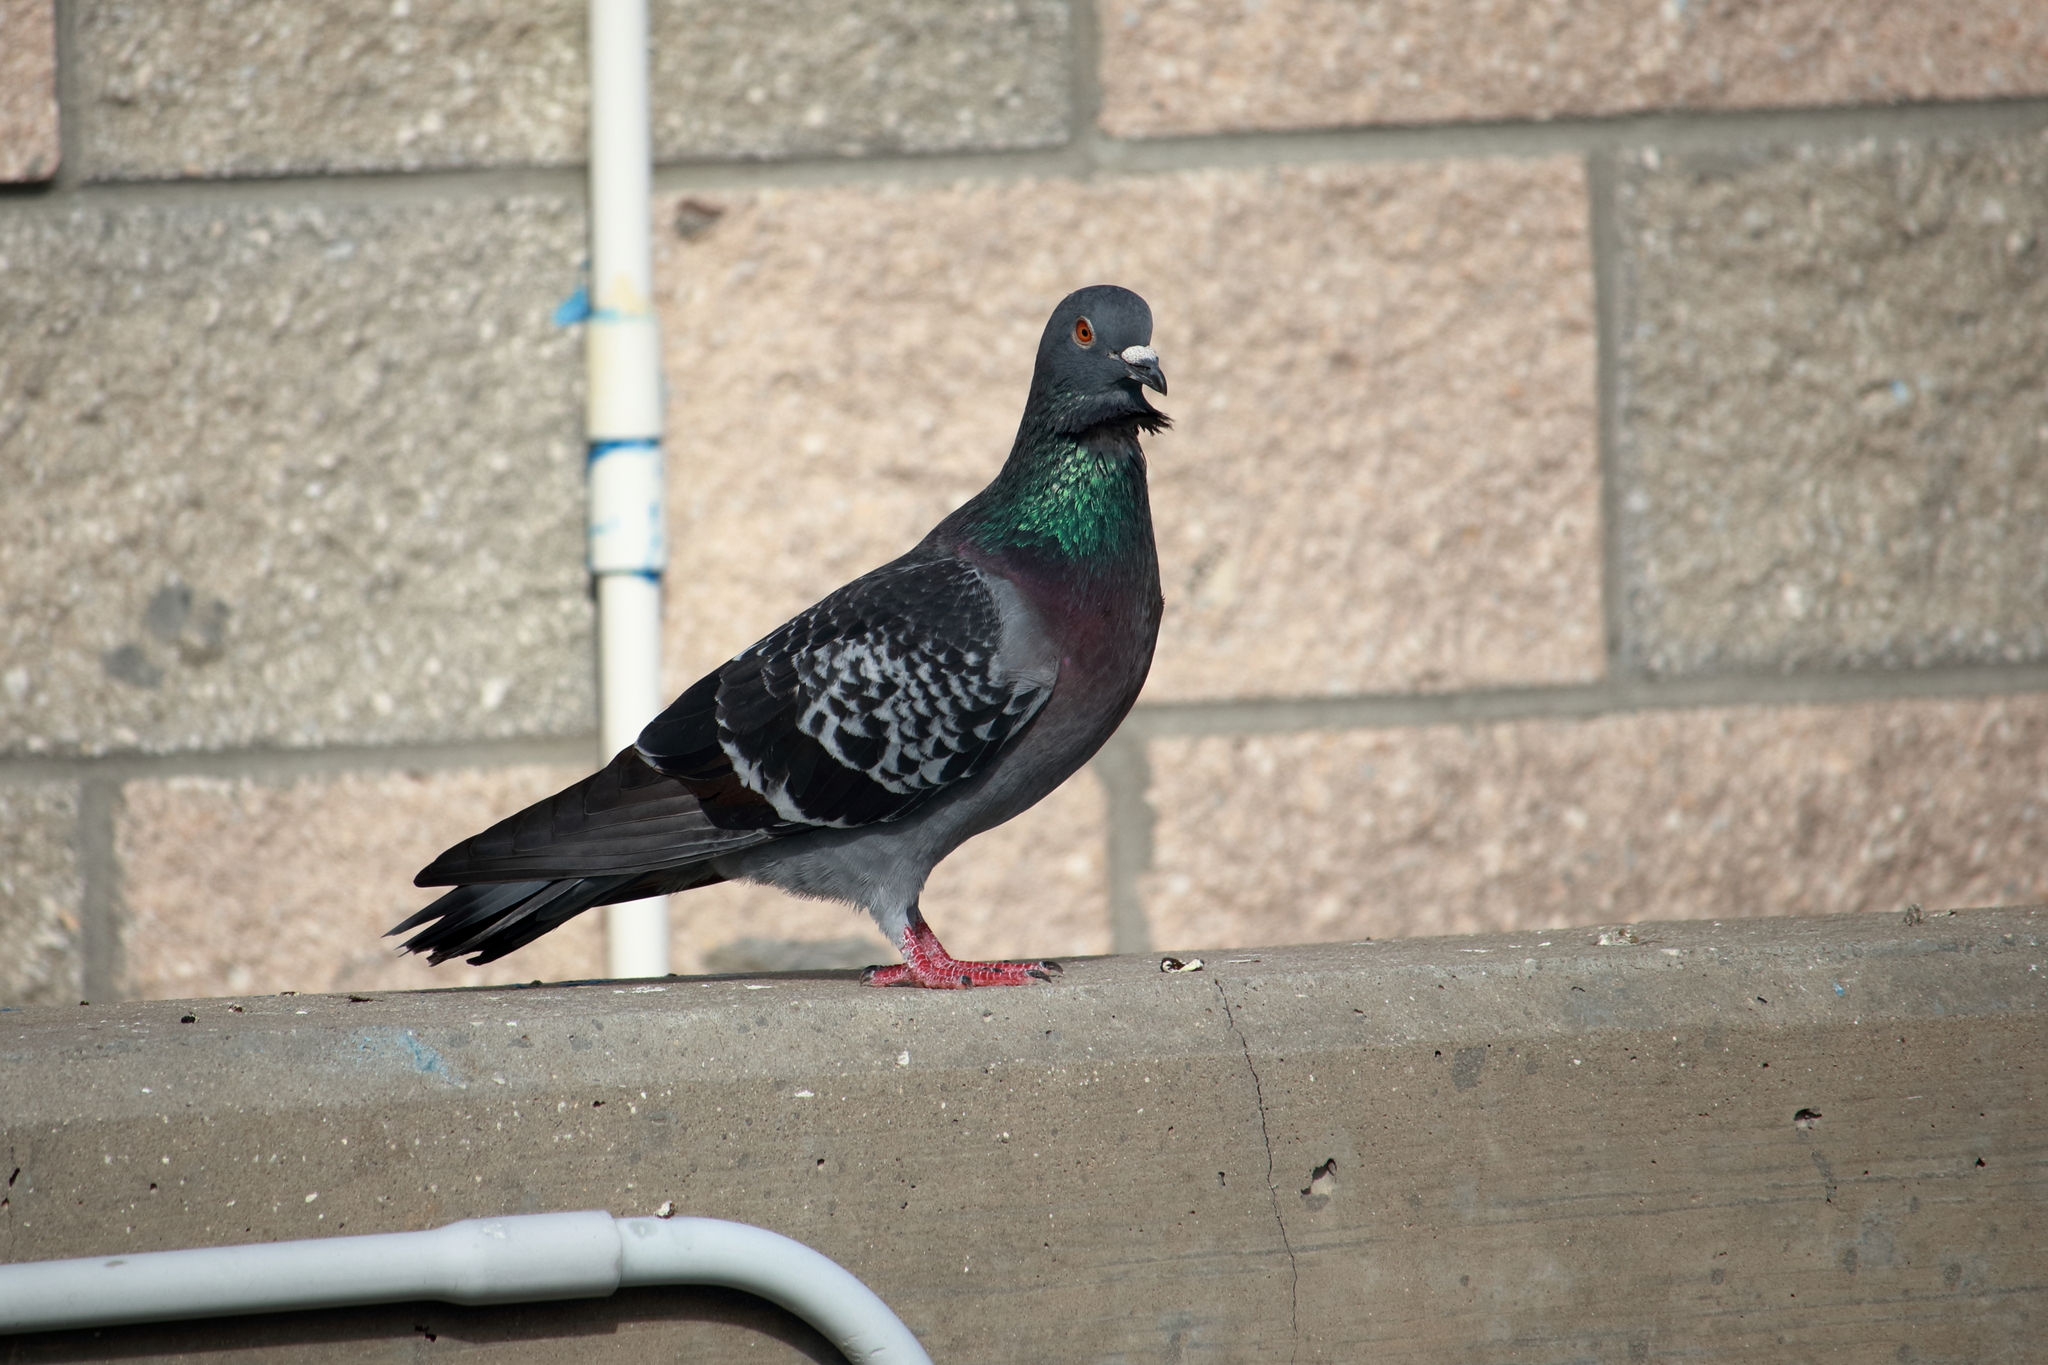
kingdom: Animalia
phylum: Chordata
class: Aves
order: Columbiformes
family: Columbidae
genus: Columba
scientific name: Columba livia
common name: Rock pigeon
